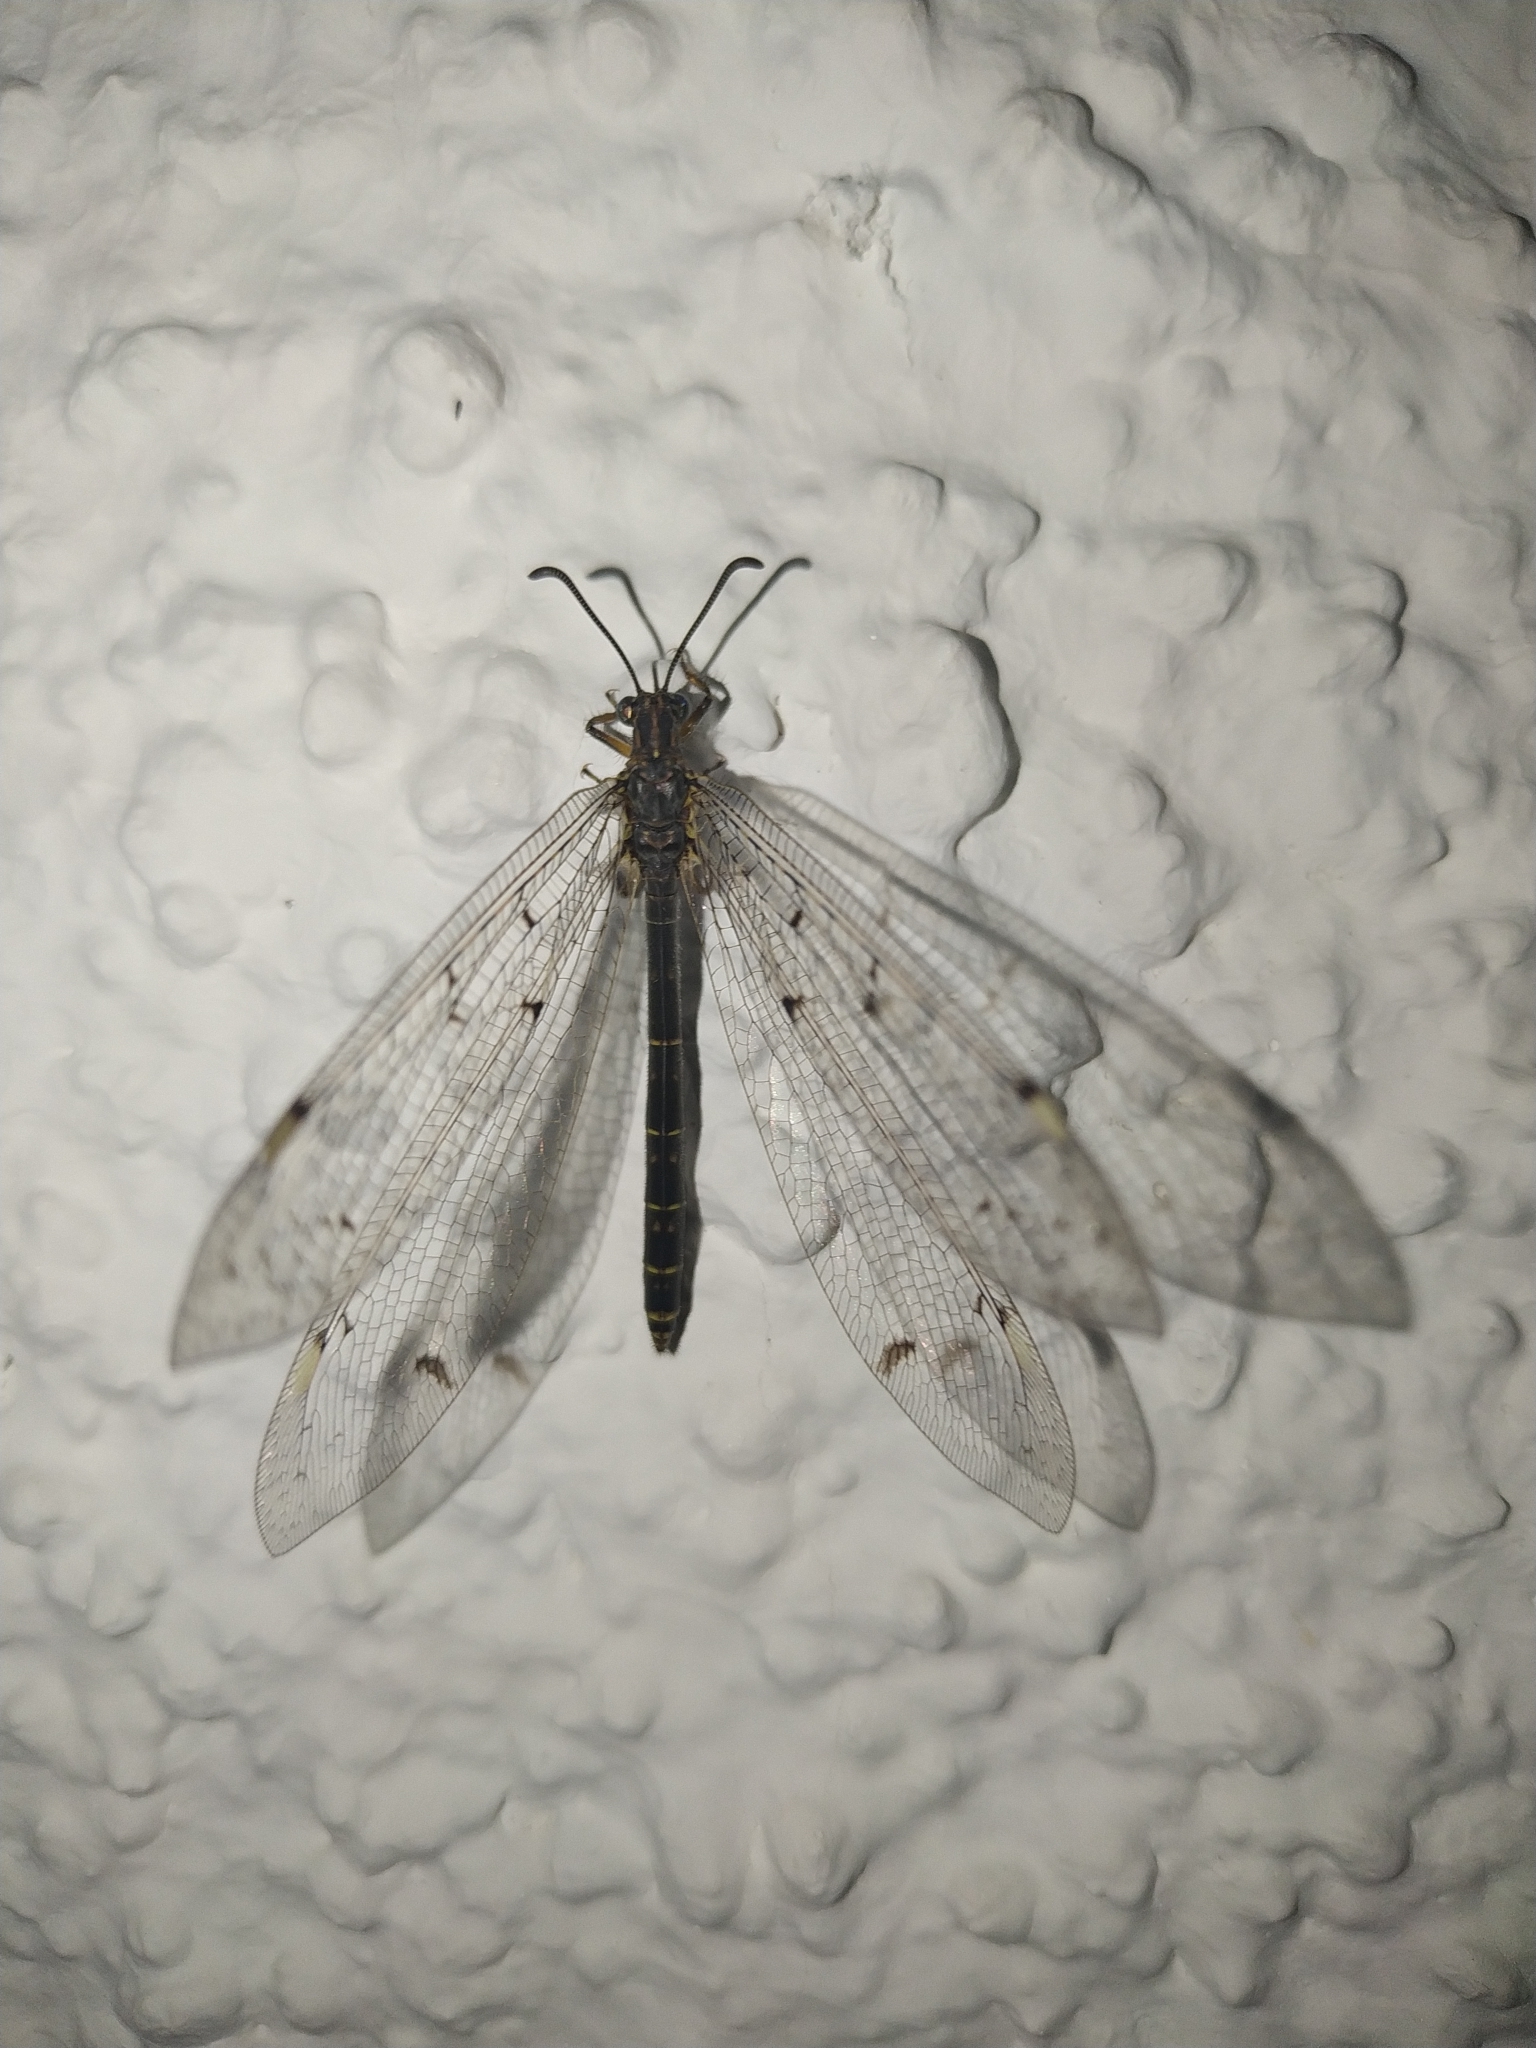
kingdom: Animalia
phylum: Arthropoda
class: Insecta
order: Neuroptera
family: Myrmeleontidae
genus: Distoleon
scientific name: Distoleon tetragrammicus
